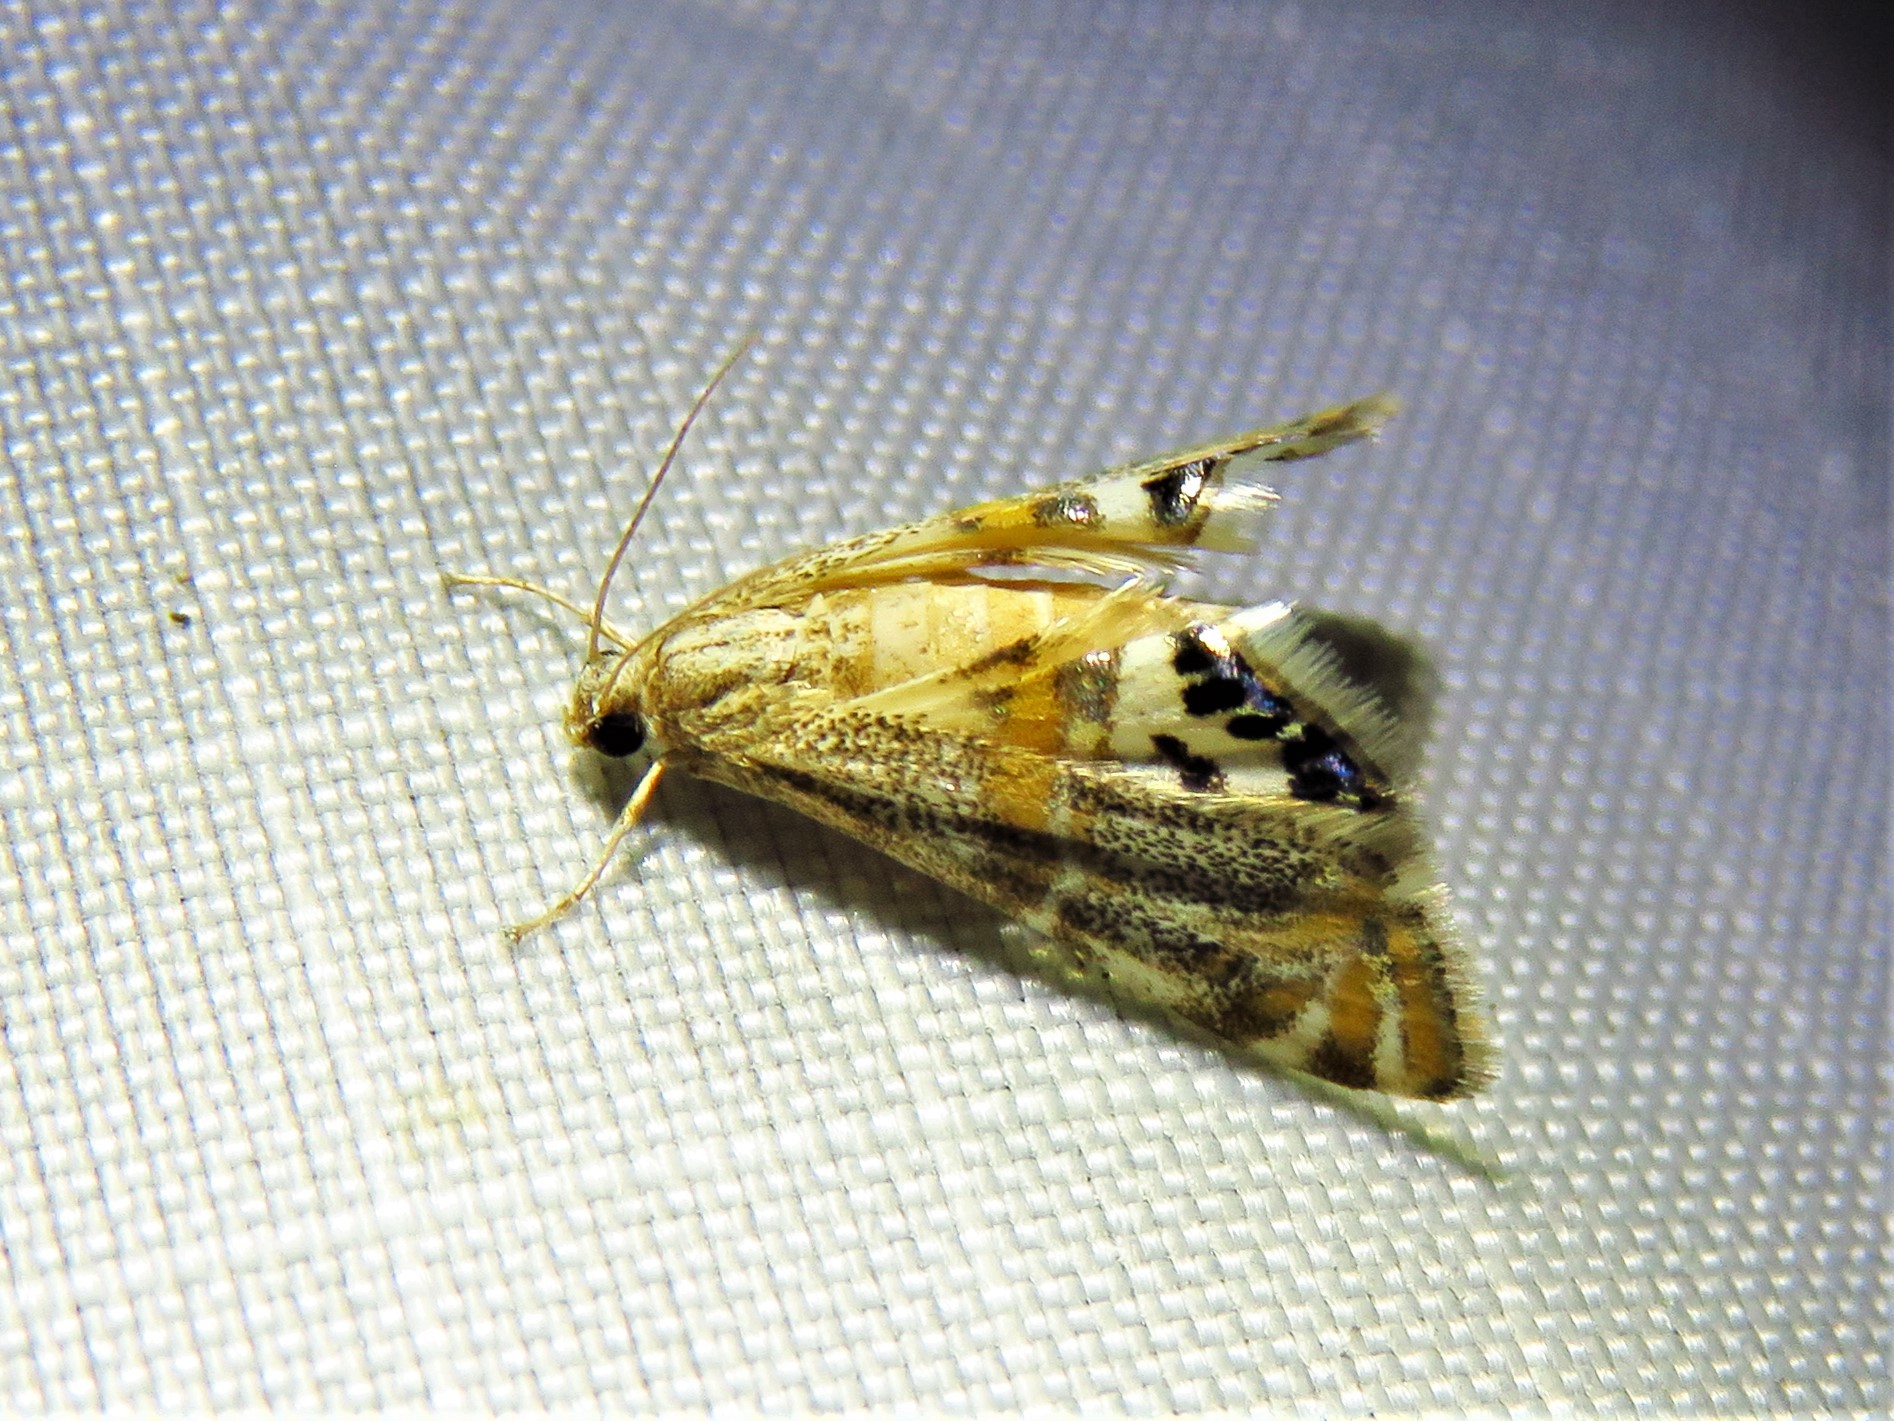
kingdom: Animalia
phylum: Arthropoda
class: Insecta
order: Lepidoptera
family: Crambidae
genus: Petrophila
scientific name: Petrophila bifascialis
